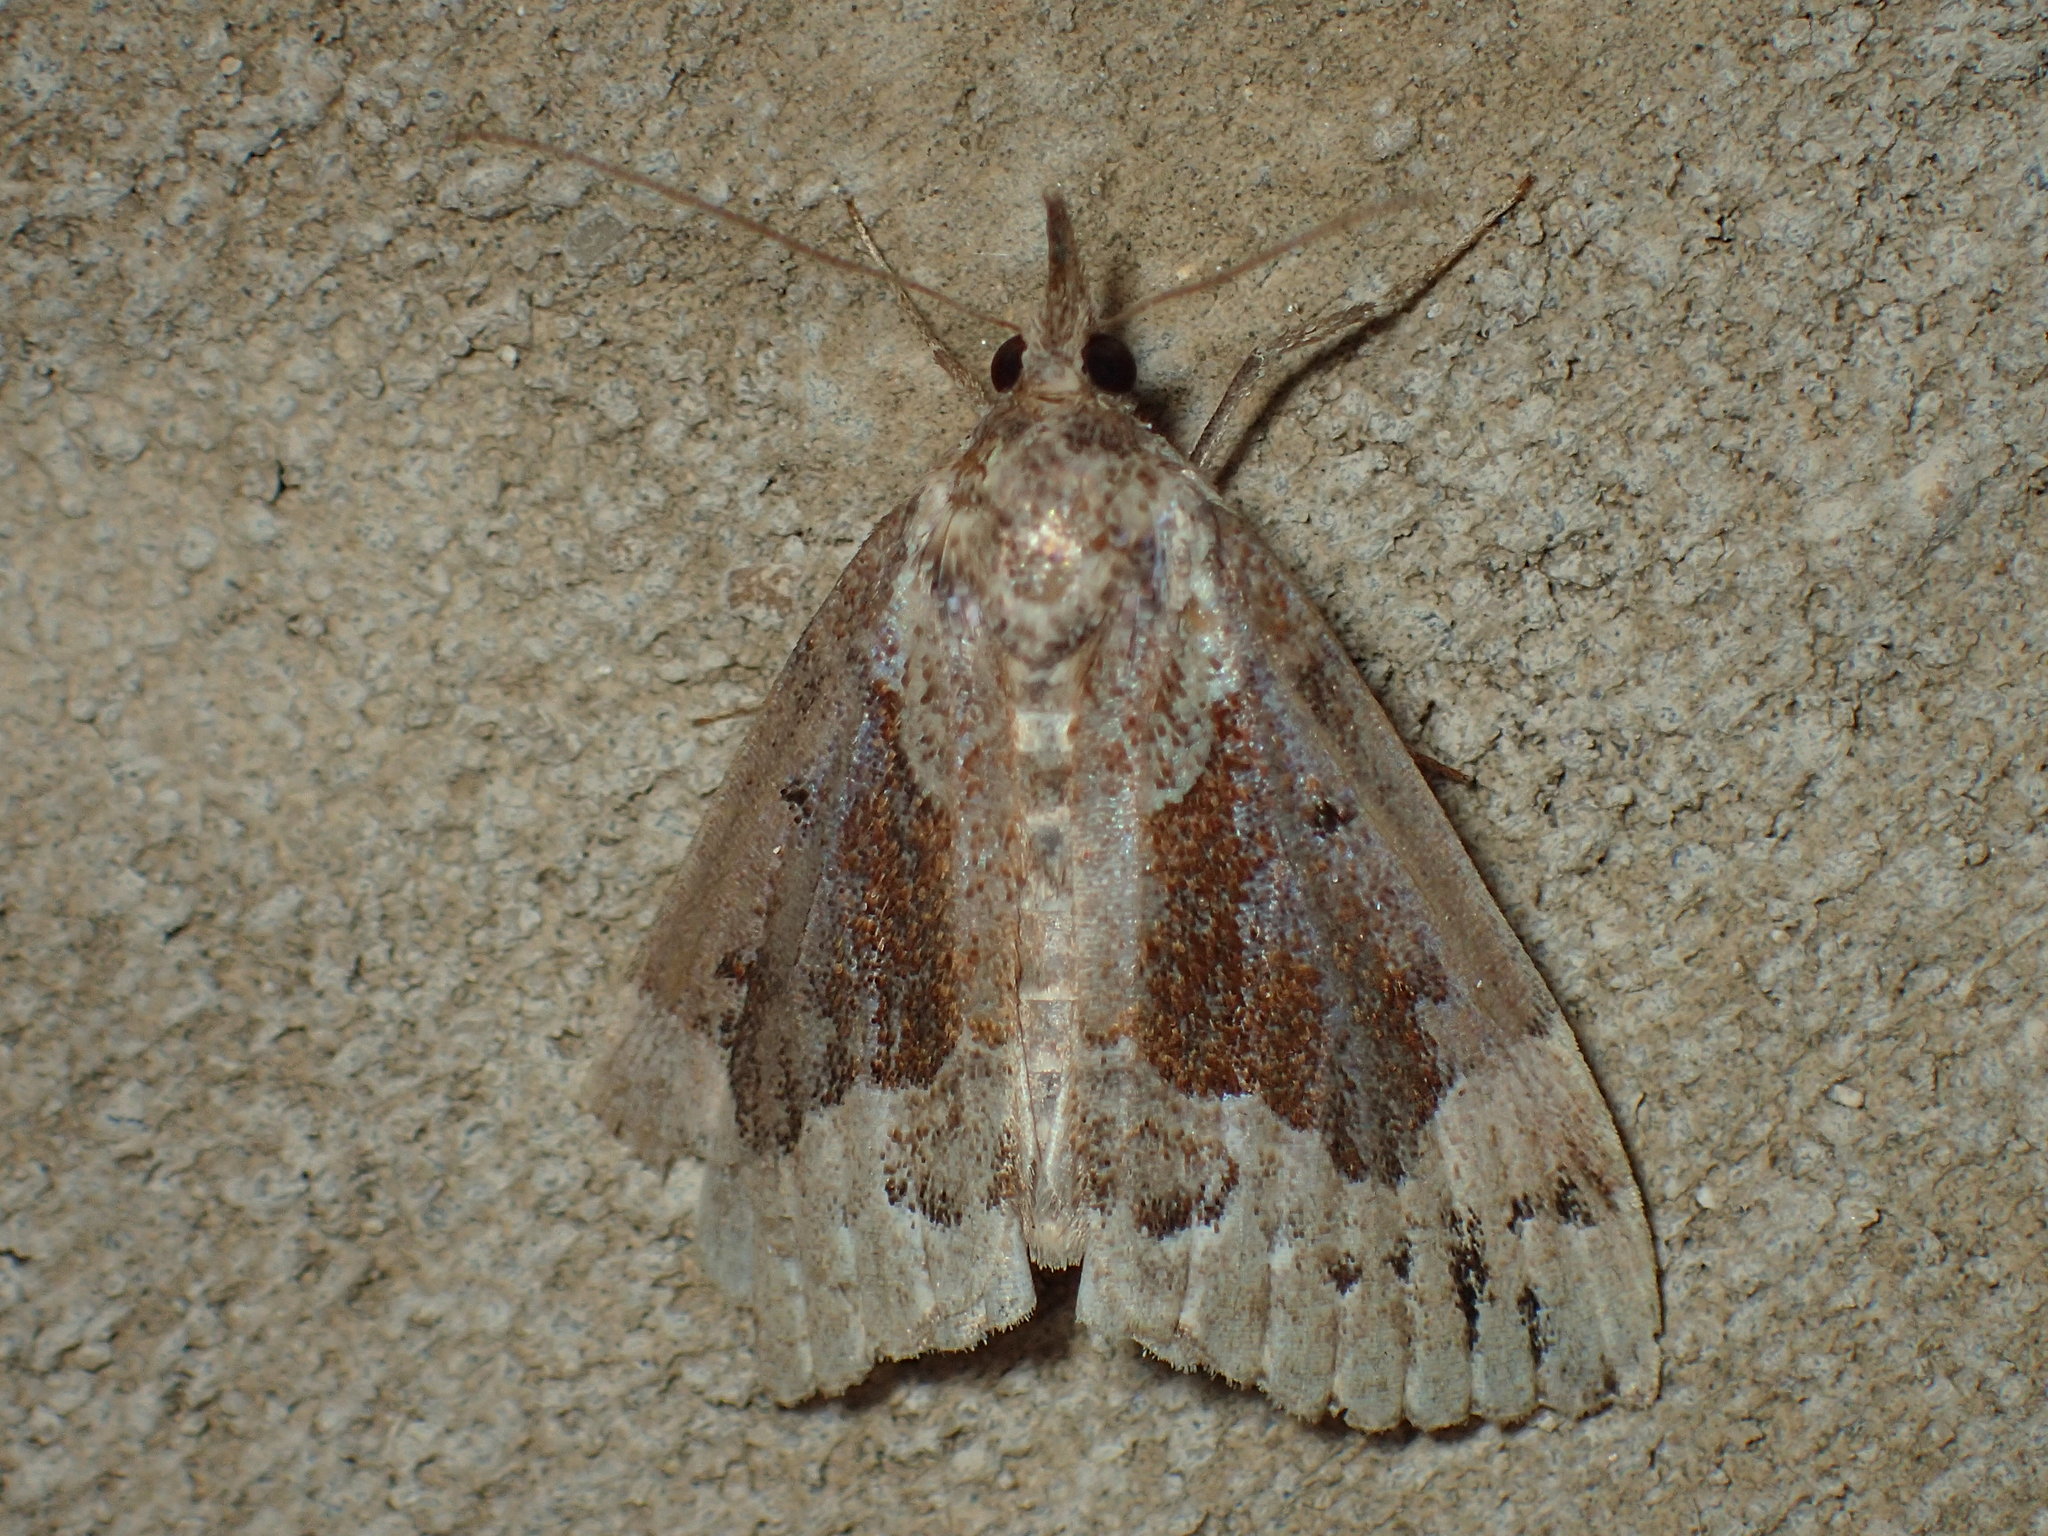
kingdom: Animalia
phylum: Arthropoda
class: Insecta
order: Lepidoptera
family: Erebidae
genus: Hypena
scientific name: Hypena palparia
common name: Mottled bomolocha moth
